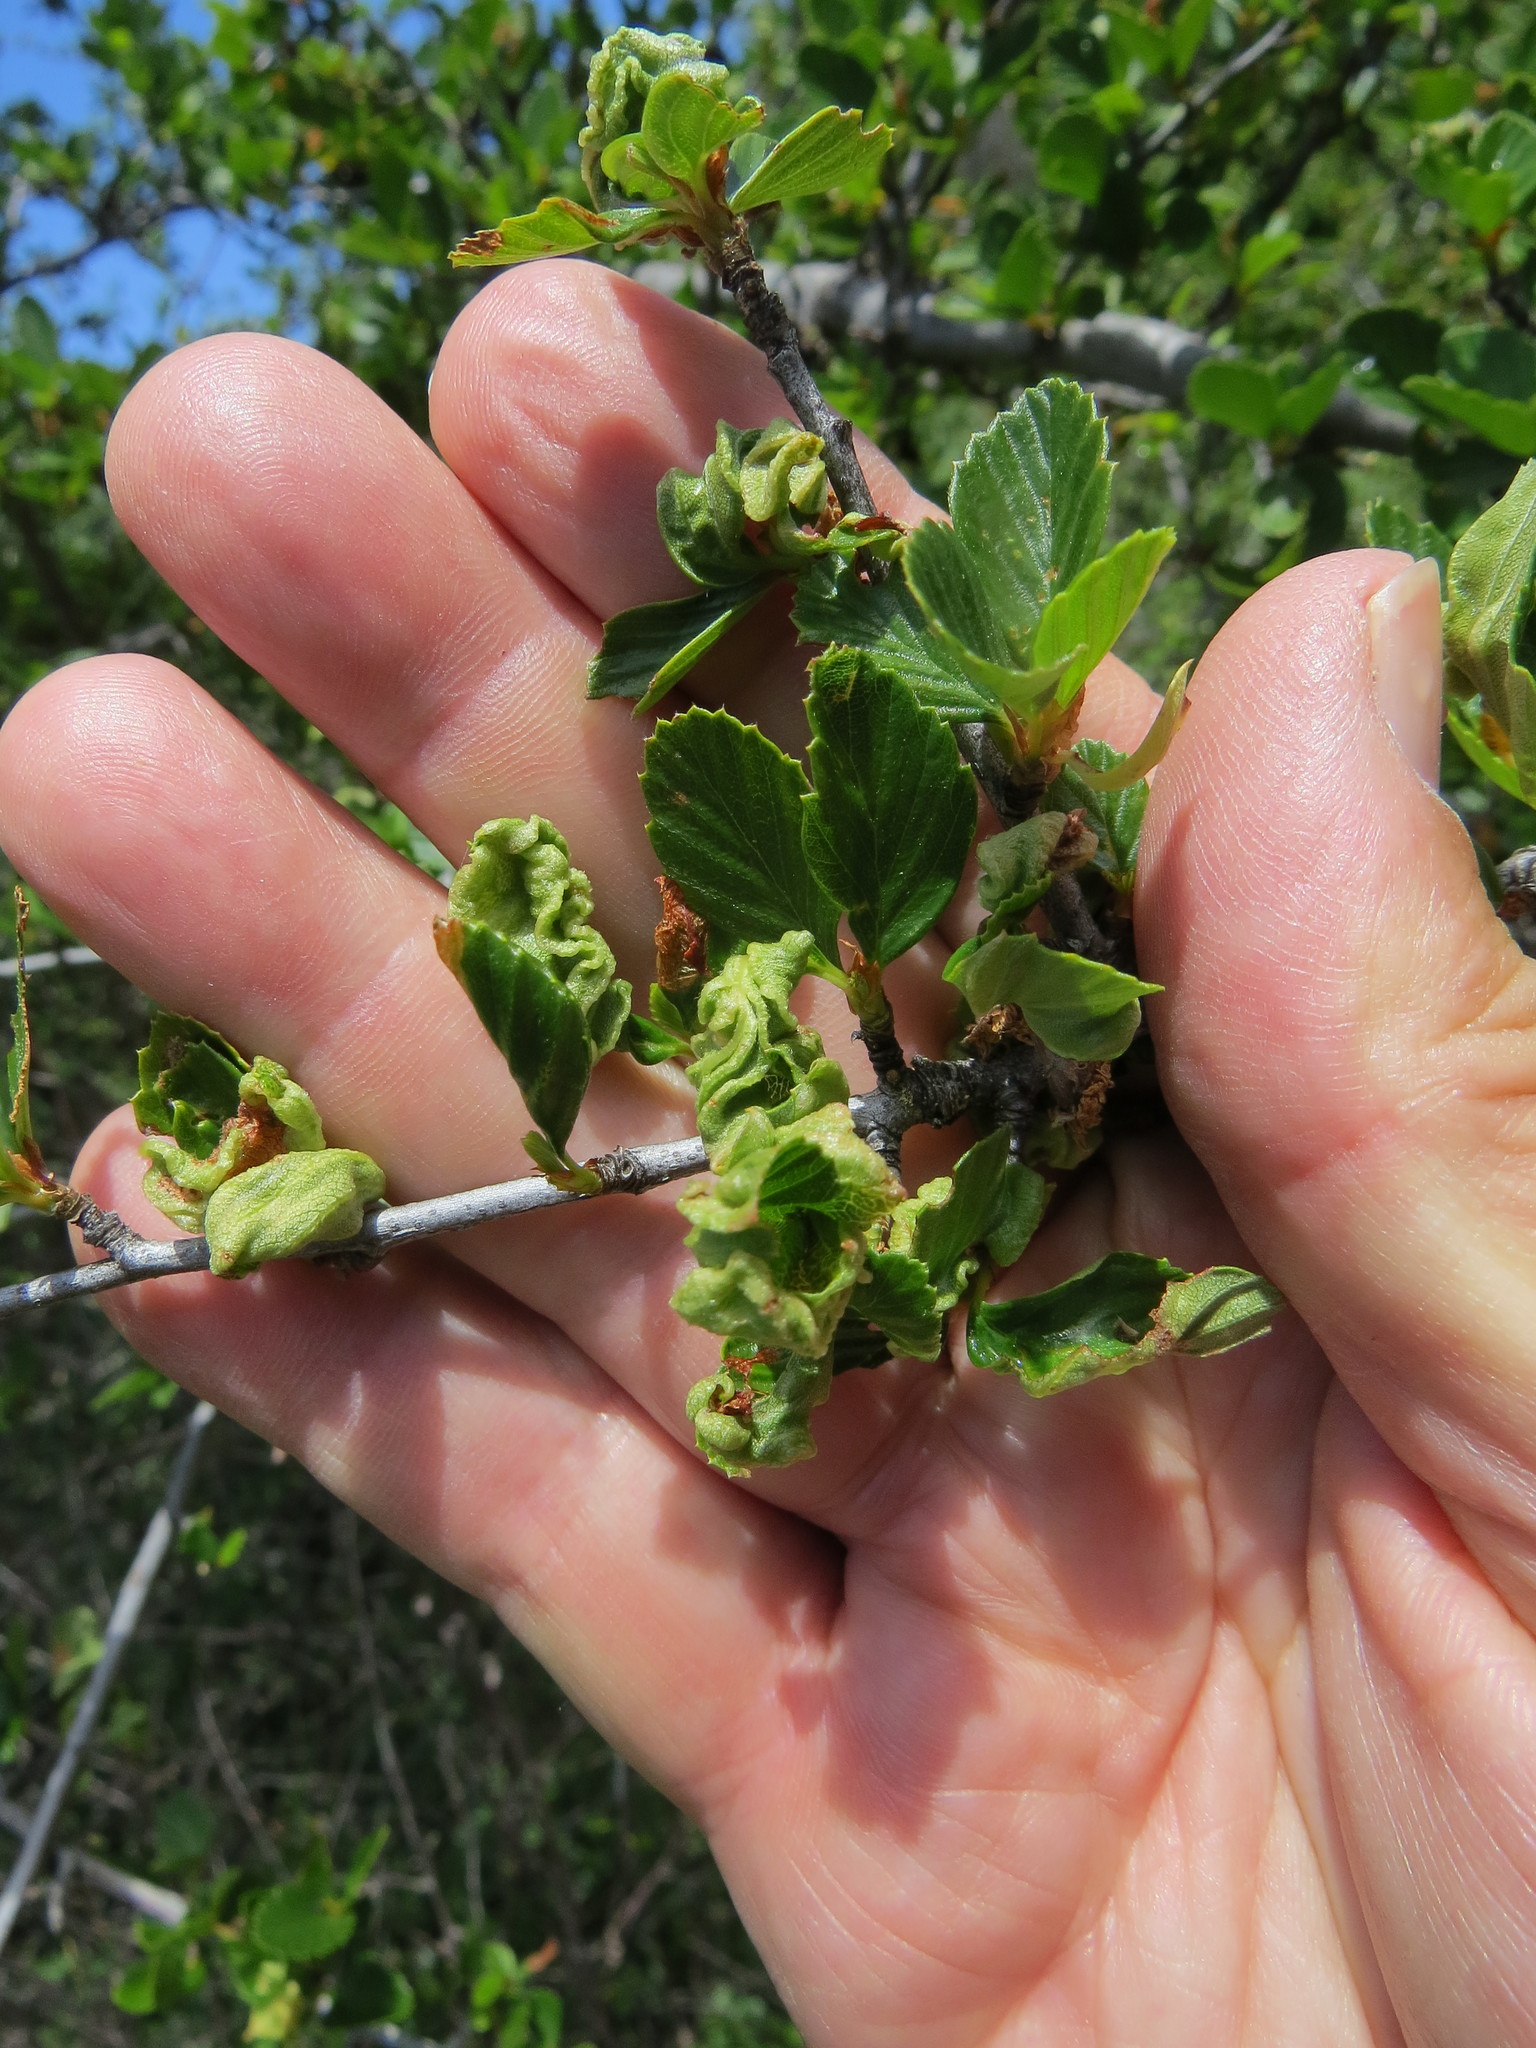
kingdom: Plantae
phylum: Tracheophyta
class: Magnoliopsida
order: Rosales
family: Rosaceae
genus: Cercocarpus
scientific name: Cercocarpus betuloides
